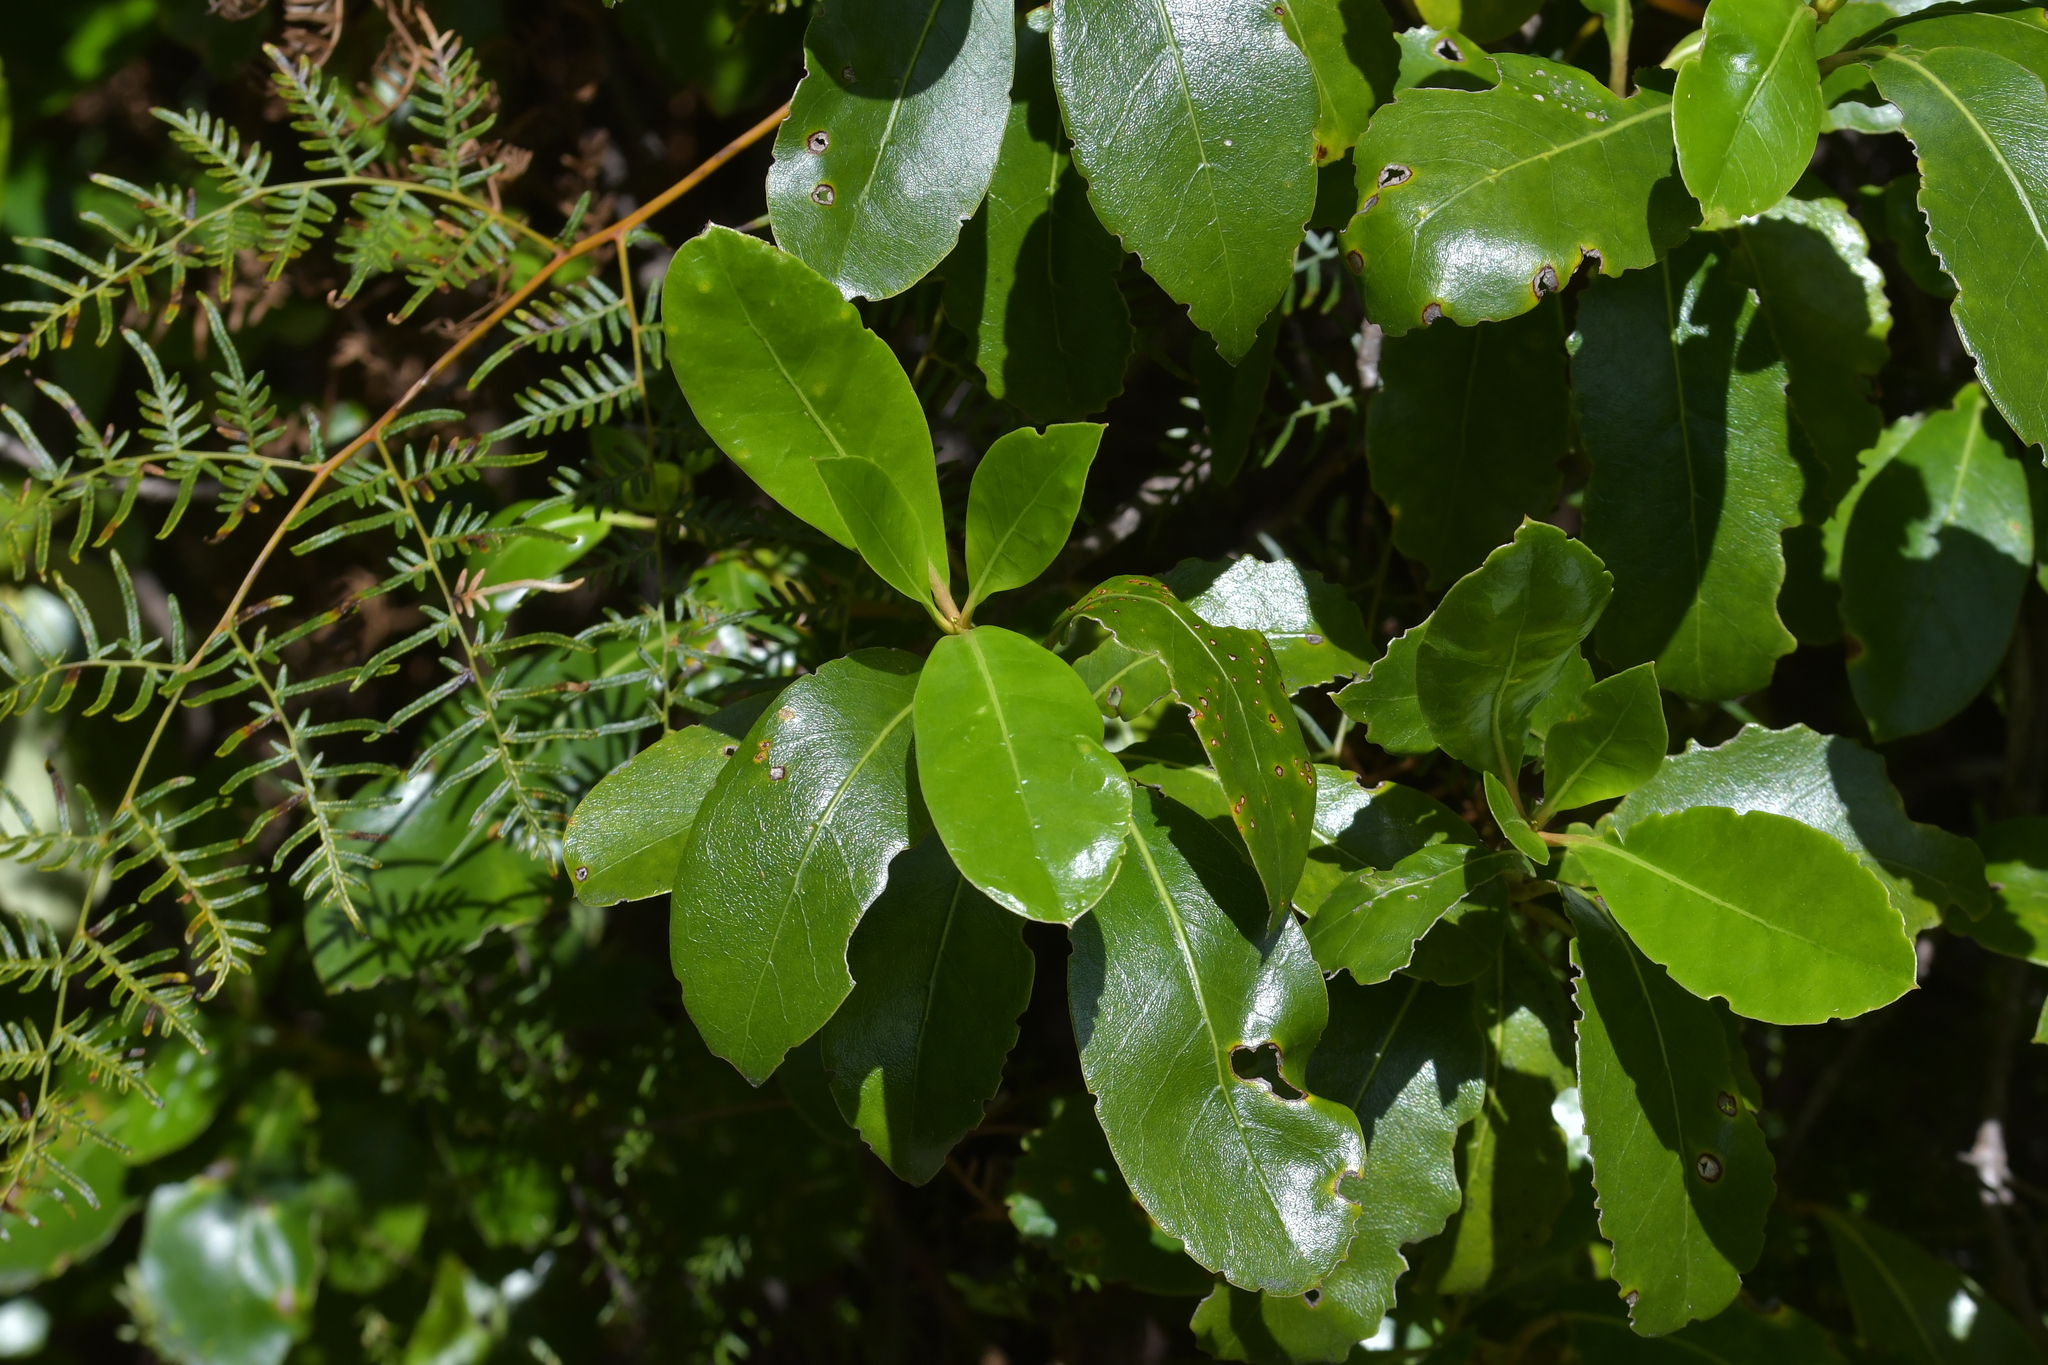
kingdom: Plantae
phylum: Tracheophyta
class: Magnoliopsida
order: Gentianales
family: Rubiaceae
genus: Coprosma
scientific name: Coprosma lucida
